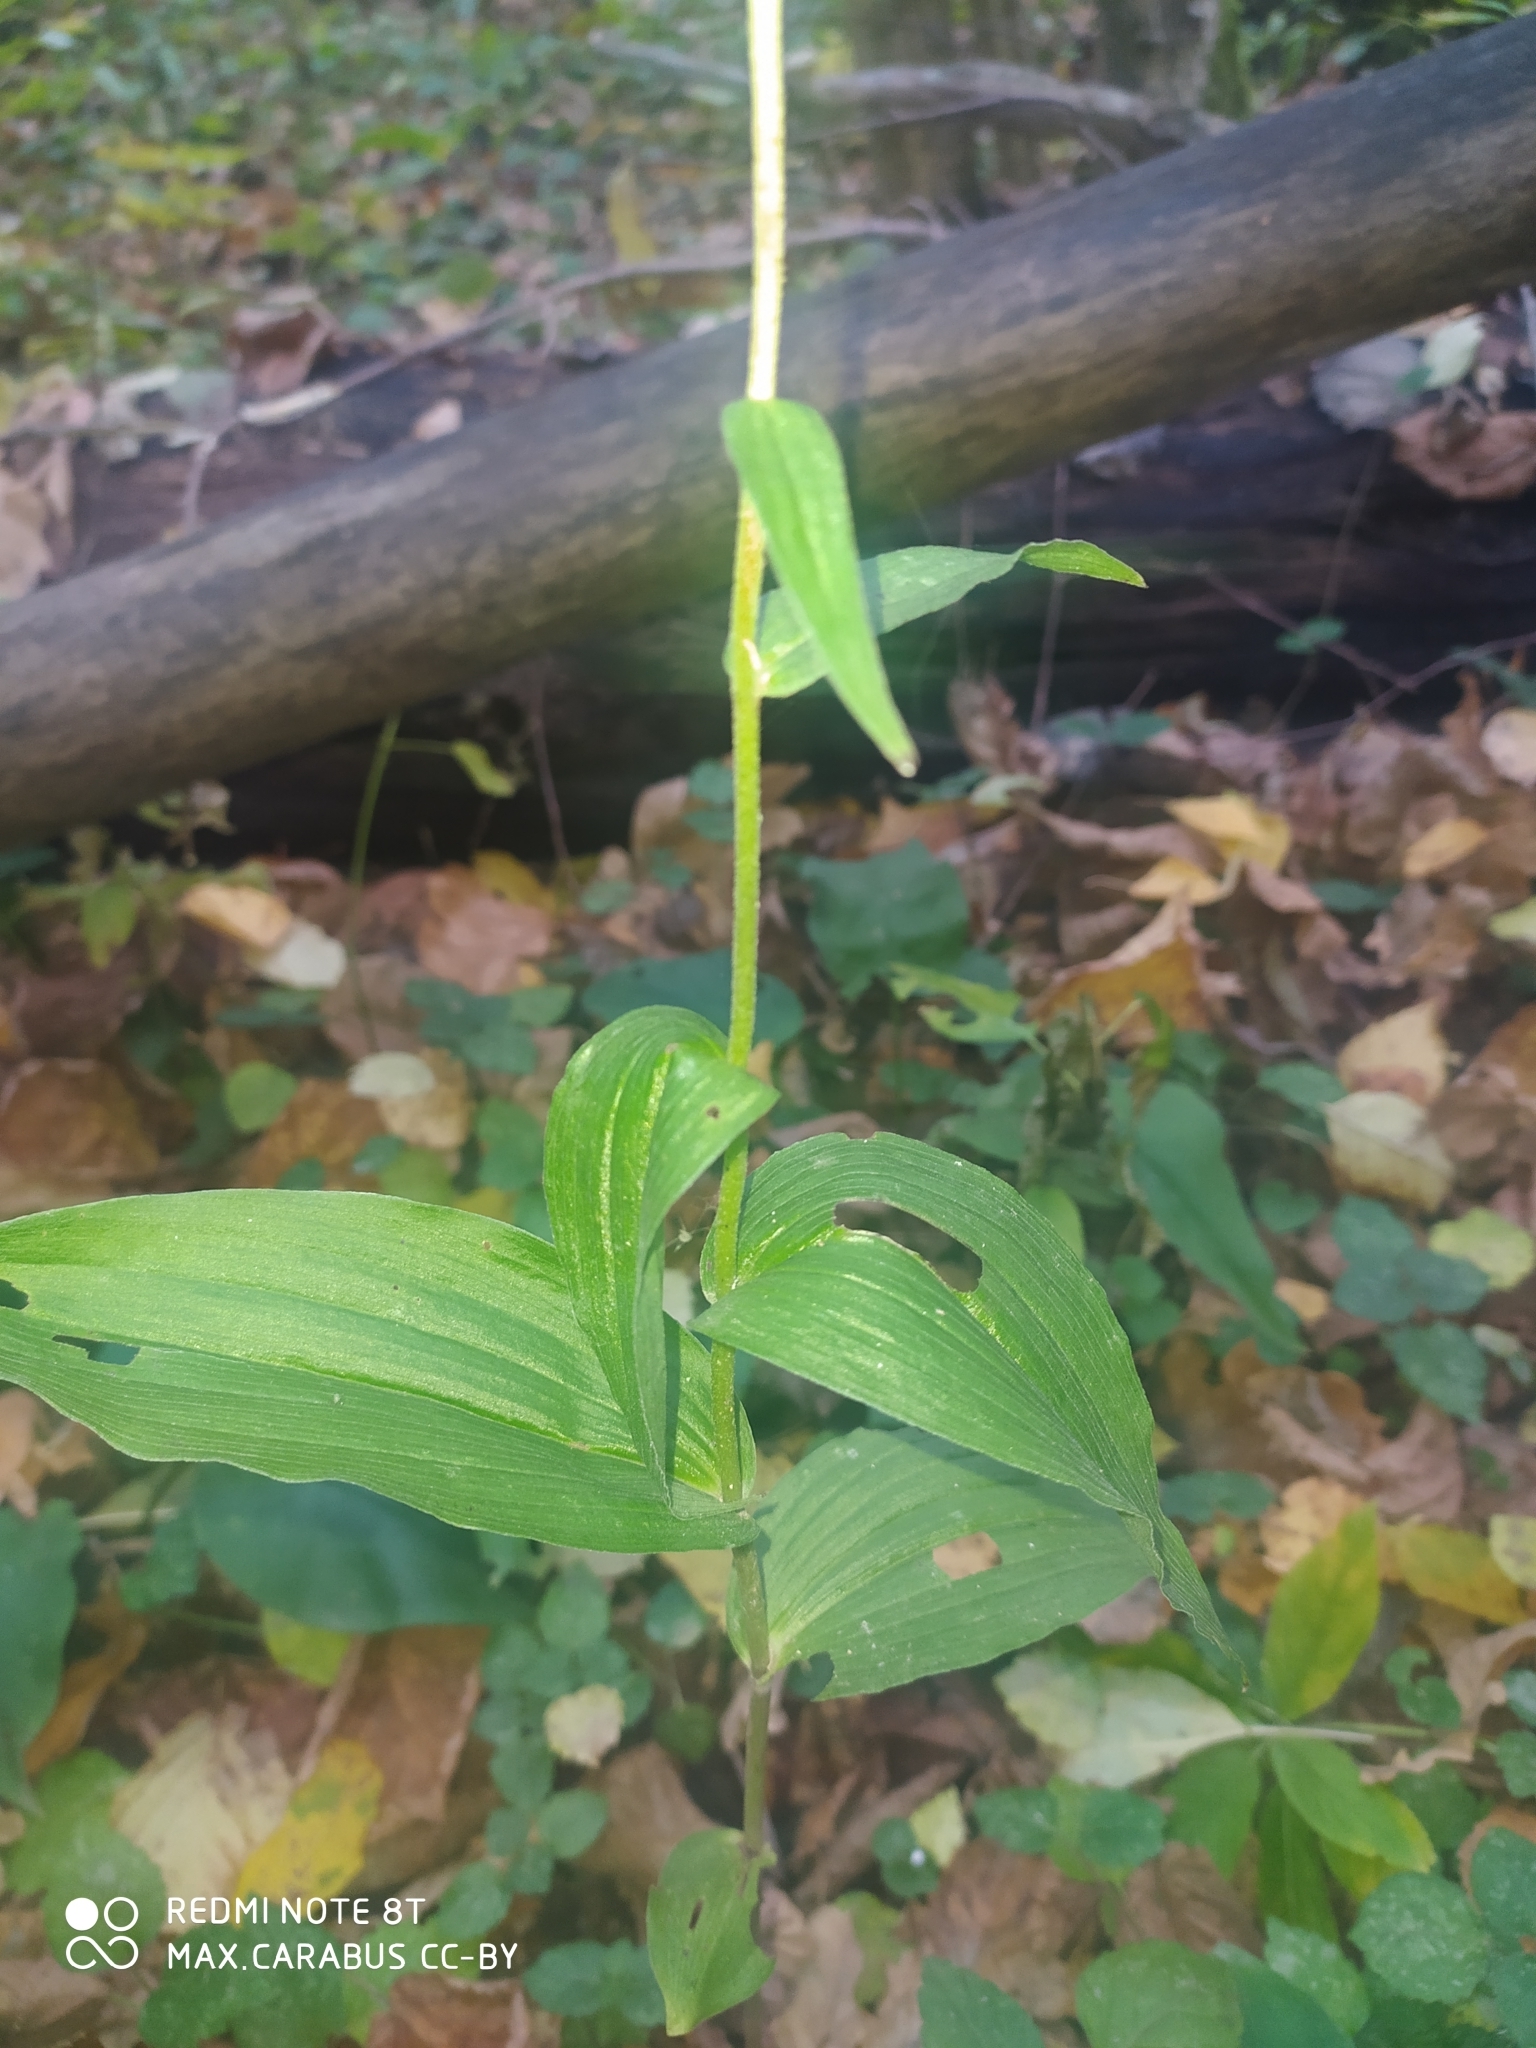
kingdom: Plantae
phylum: Tracheophyta
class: Liliopsida
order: Asparagales
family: Orchidaceae
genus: Epipactis
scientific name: Epipactis helleborine
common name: Broad-leaved helleborine
